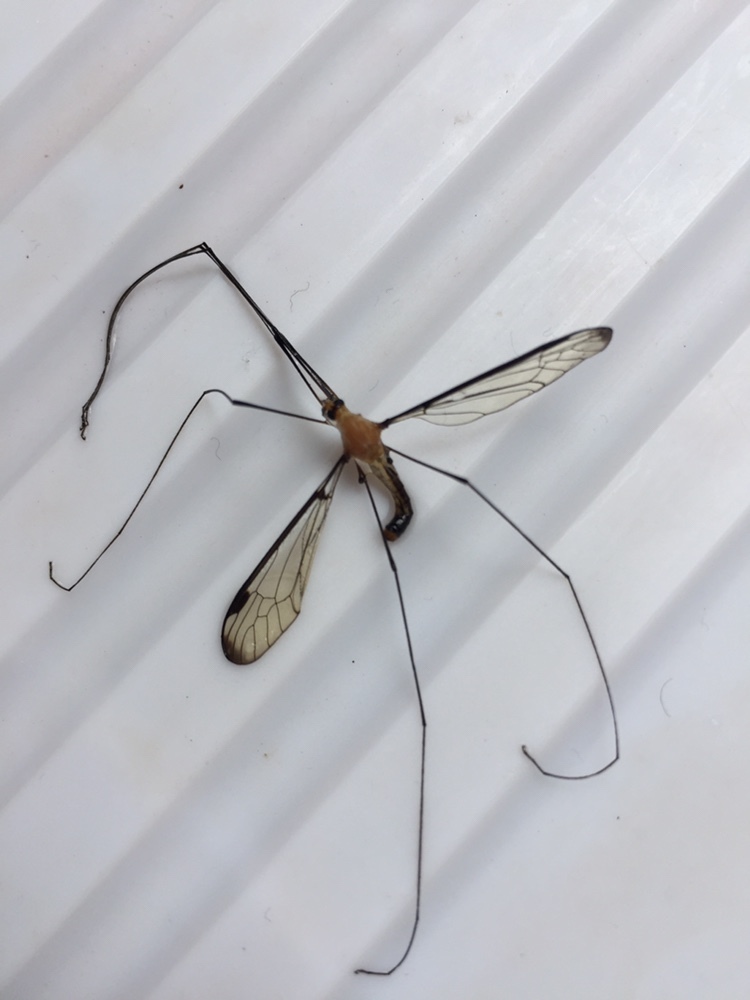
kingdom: Animalia
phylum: Arthropoda
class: Insecta
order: Diptera
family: Tipulidae
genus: Aurotipula
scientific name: Aurotipula
